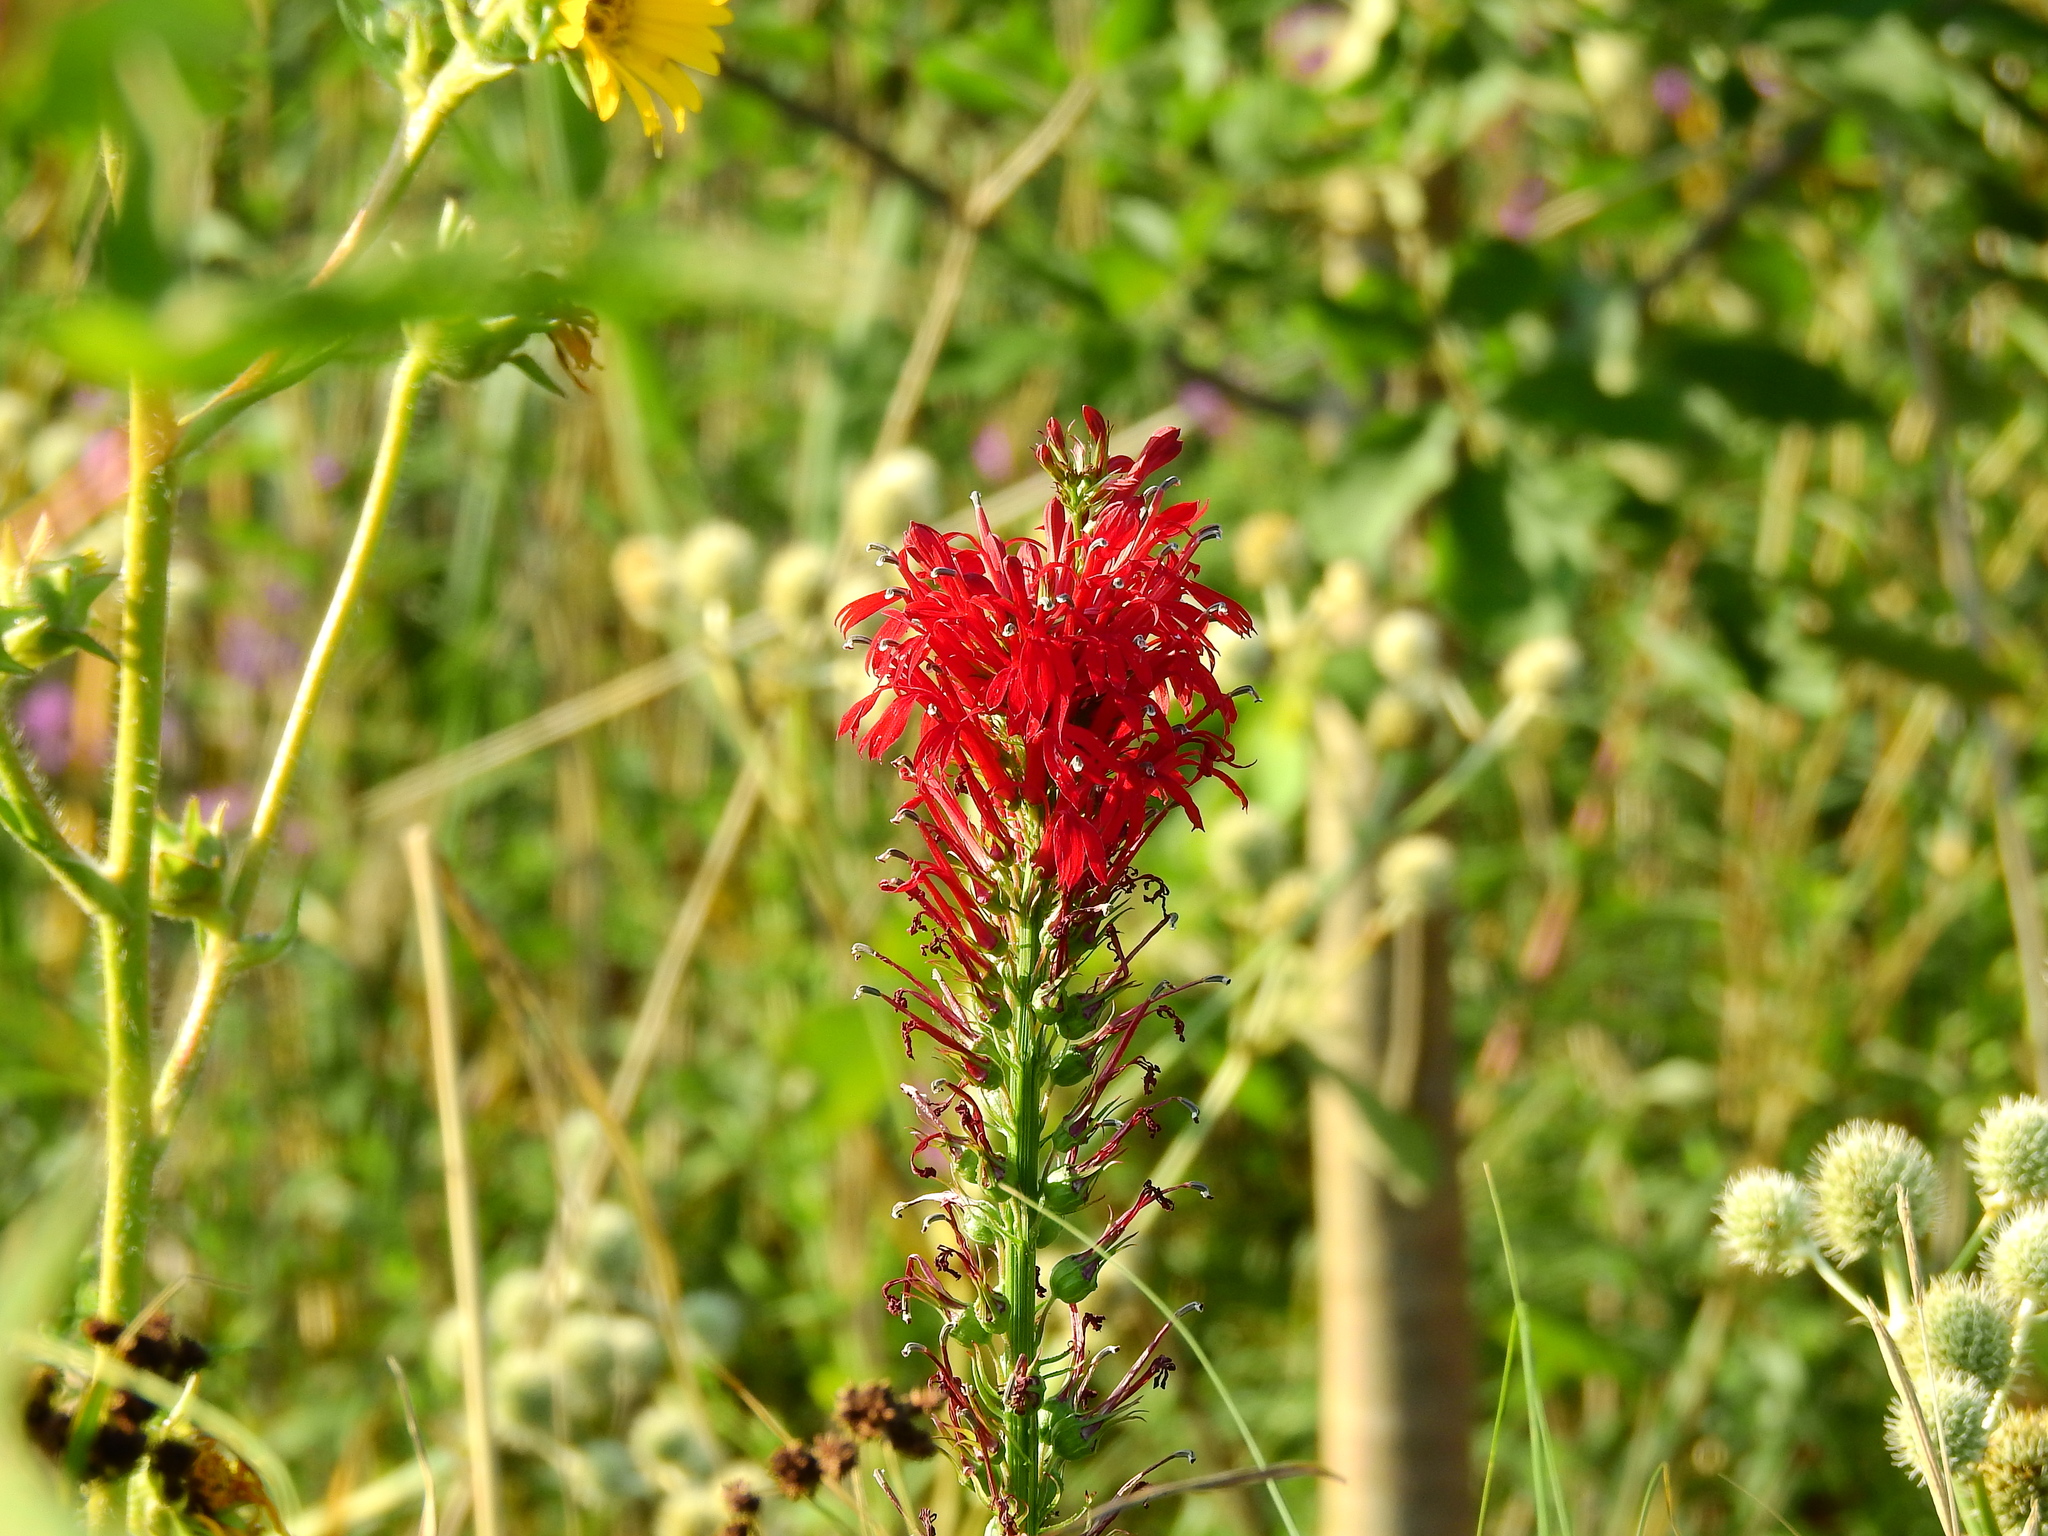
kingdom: Plantae
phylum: Tracheophyta
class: Magnoliopsida
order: Asterales
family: Campanulaceae
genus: Lobelia
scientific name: Lobelia cardinalis
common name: Cardinal flower
